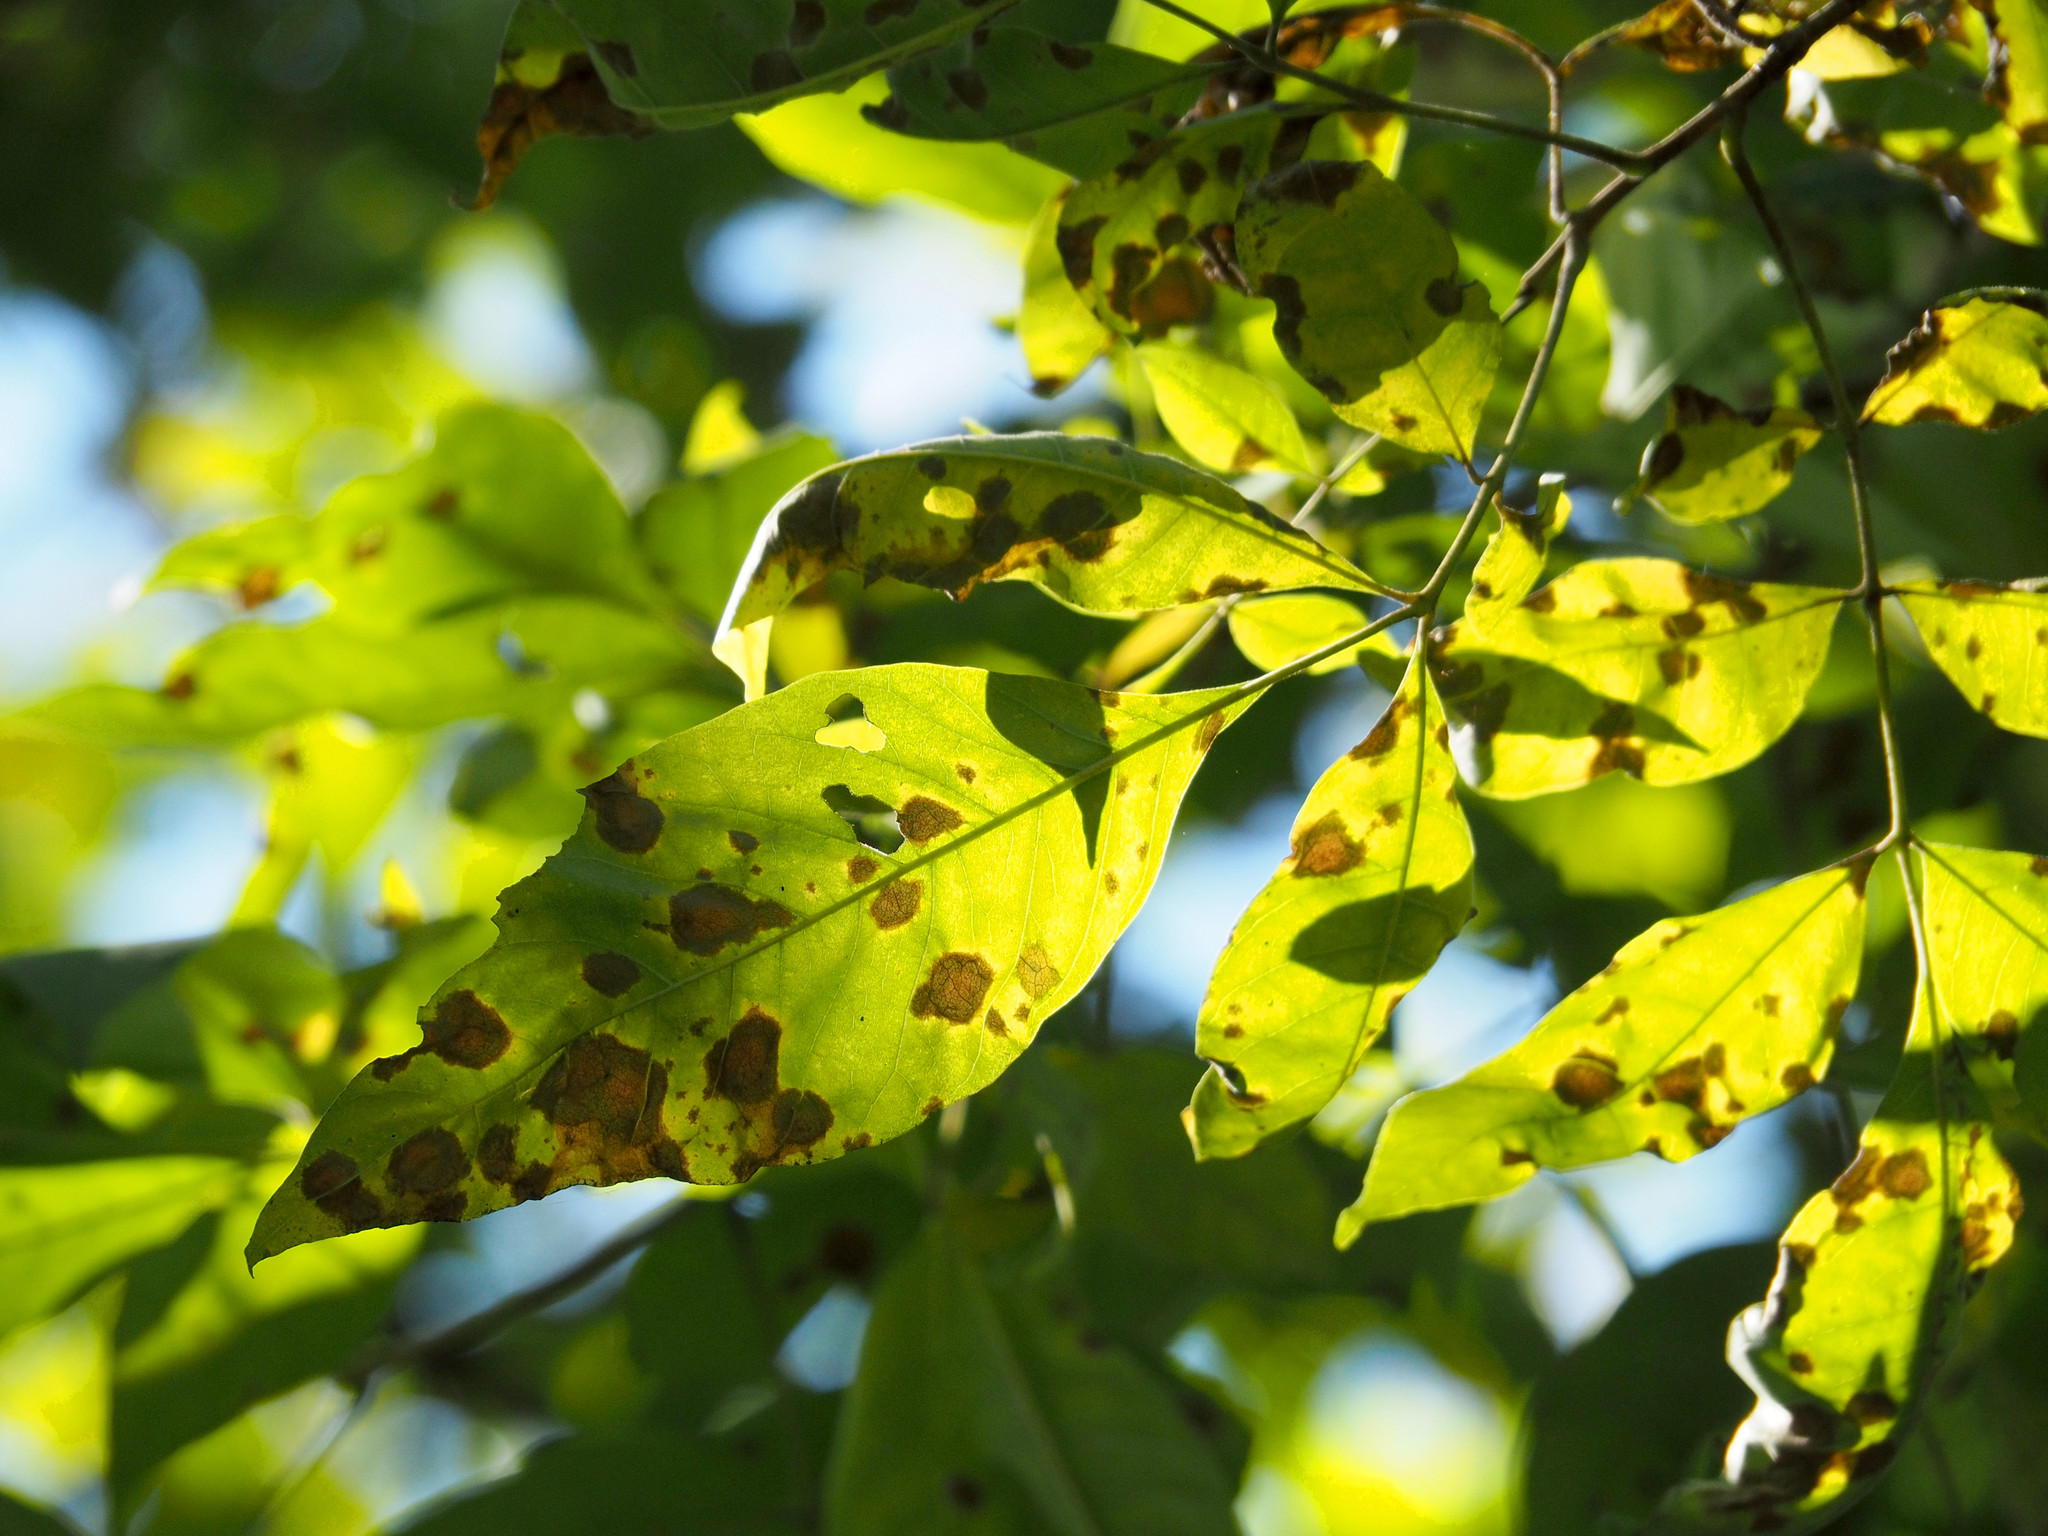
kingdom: Fungi
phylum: Ascomycota
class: Dothideomycetes
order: Mycosphaerellales
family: Mycosphaerellaceae
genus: Mycosphaerella
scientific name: Mycosphaerella fraxinicola
